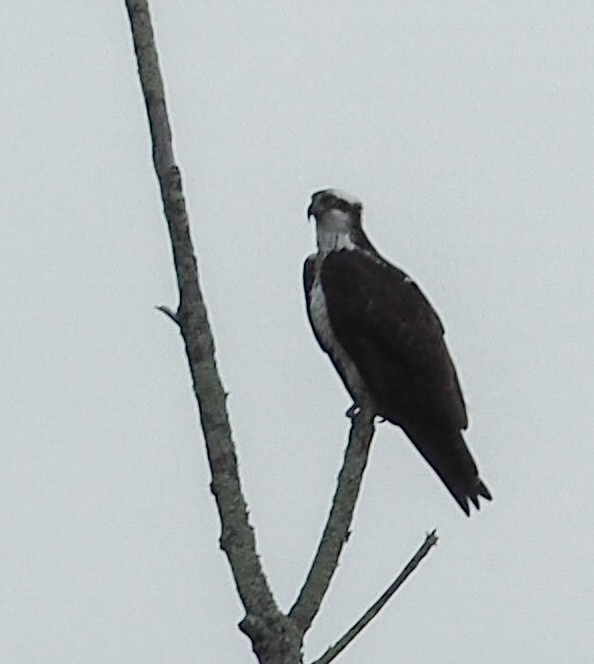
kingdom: Animalia
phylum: Chordata
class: Aves
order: Accipitriformes
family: Pandionidae
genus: Pandion
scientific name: Pandion haliaetus
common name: Osprey
